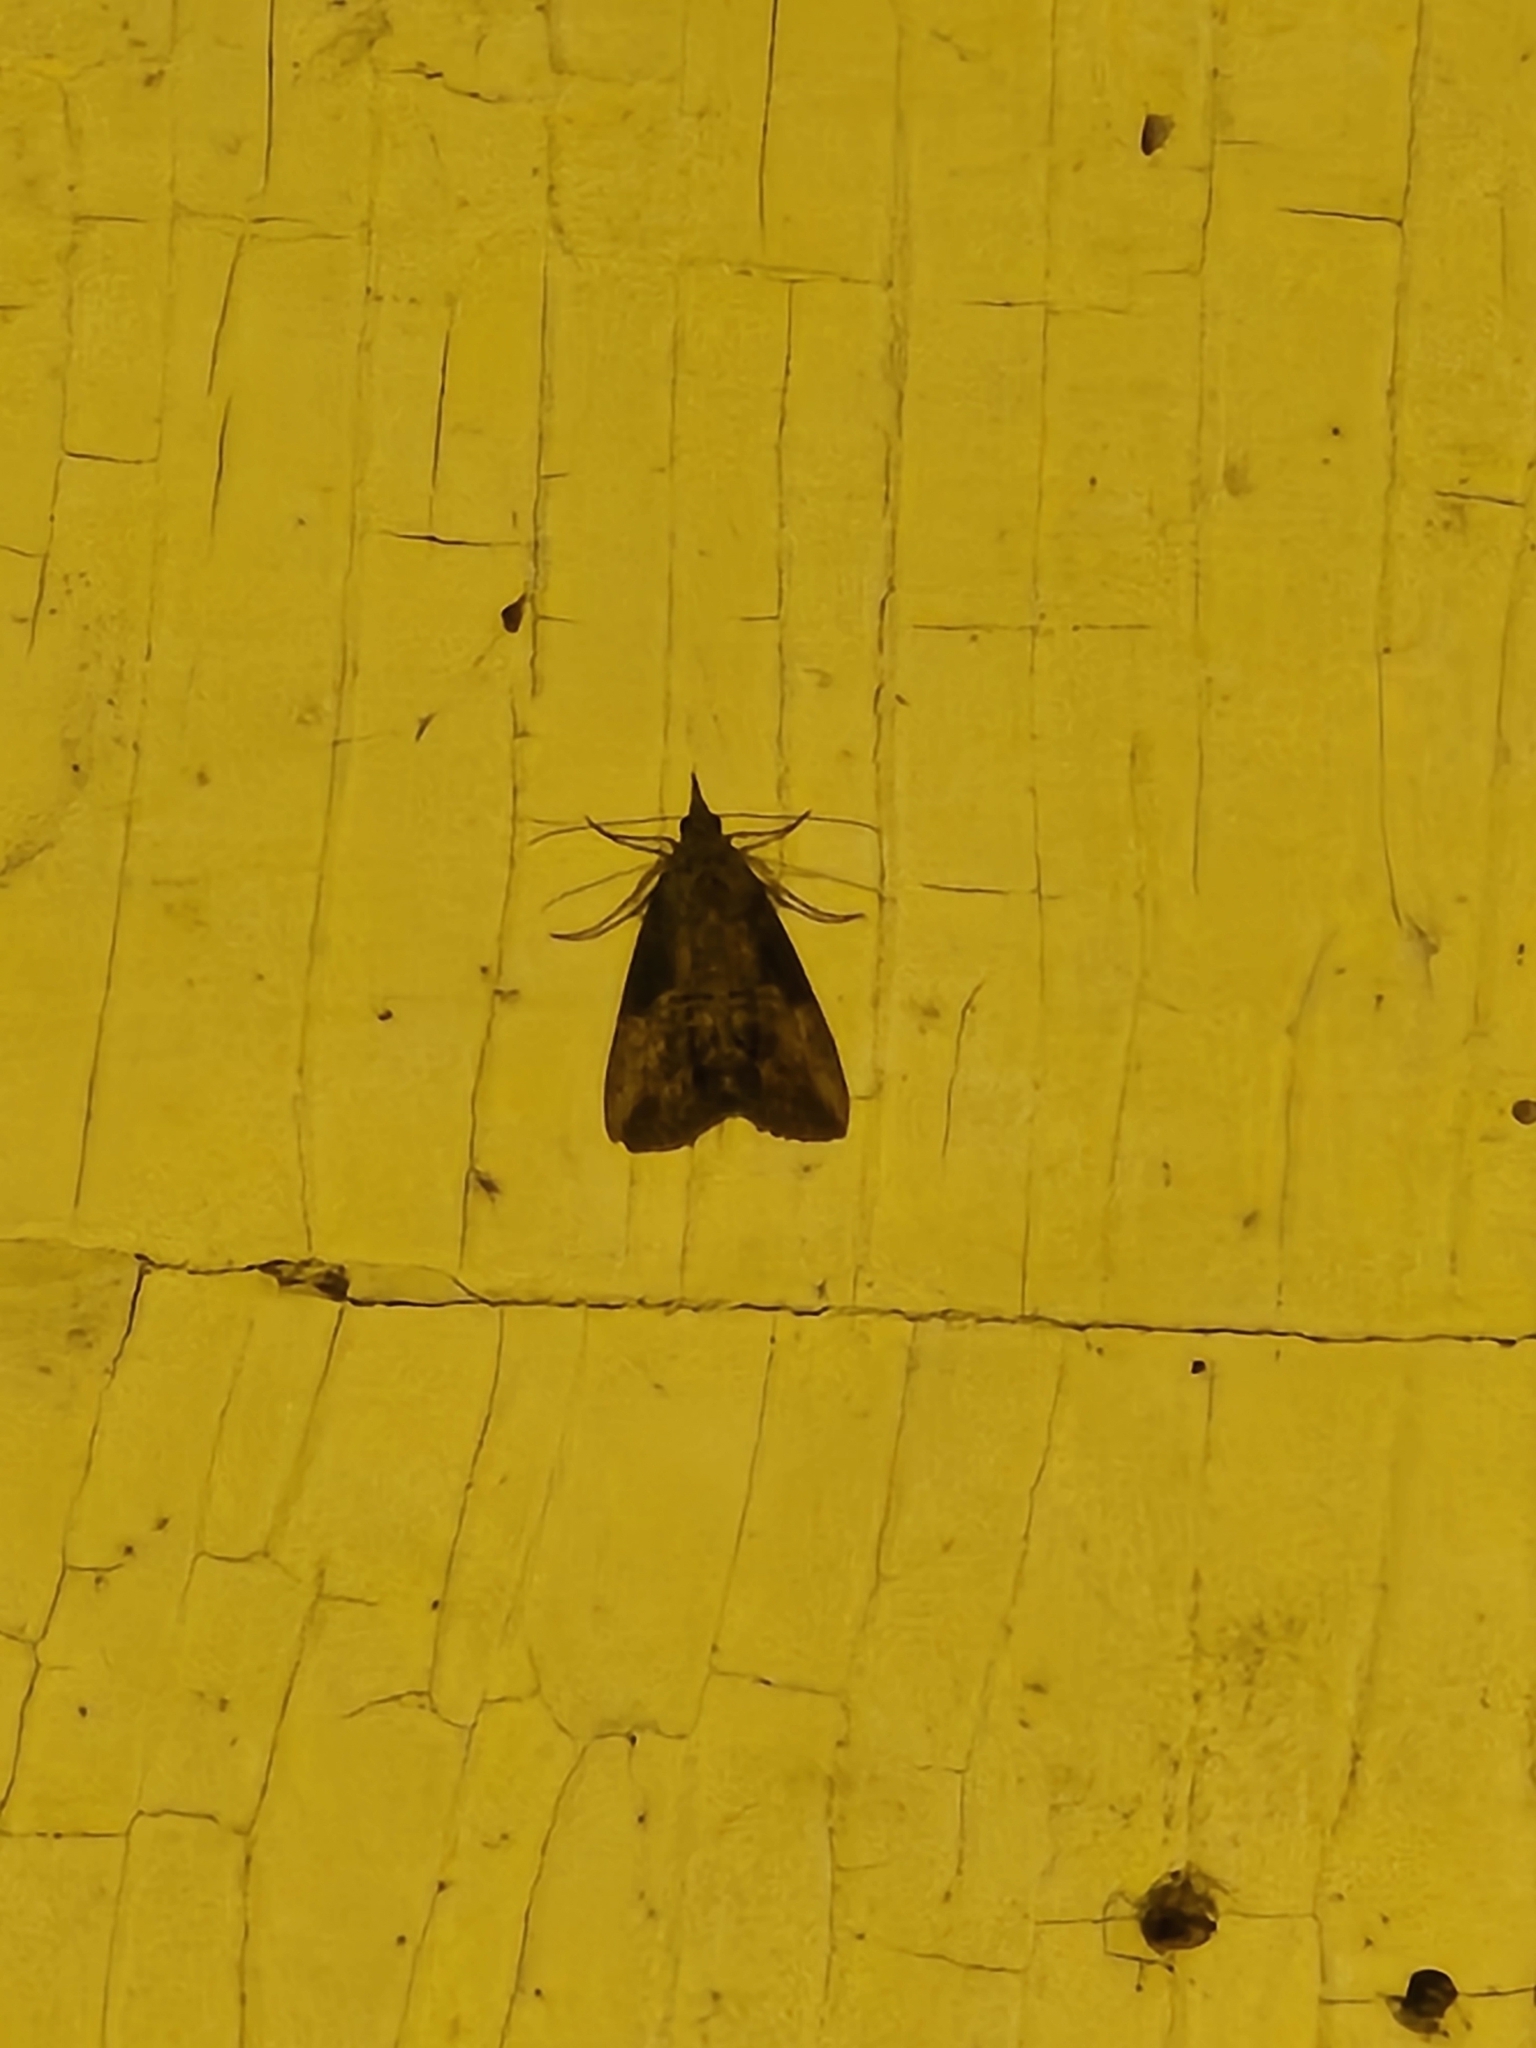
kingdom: Animalia
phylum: Arthropoda
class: Insecta
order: Lepidoptera
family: Erebidae
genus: Hypena
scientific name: Hypena scabra
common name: Green cloverworm
